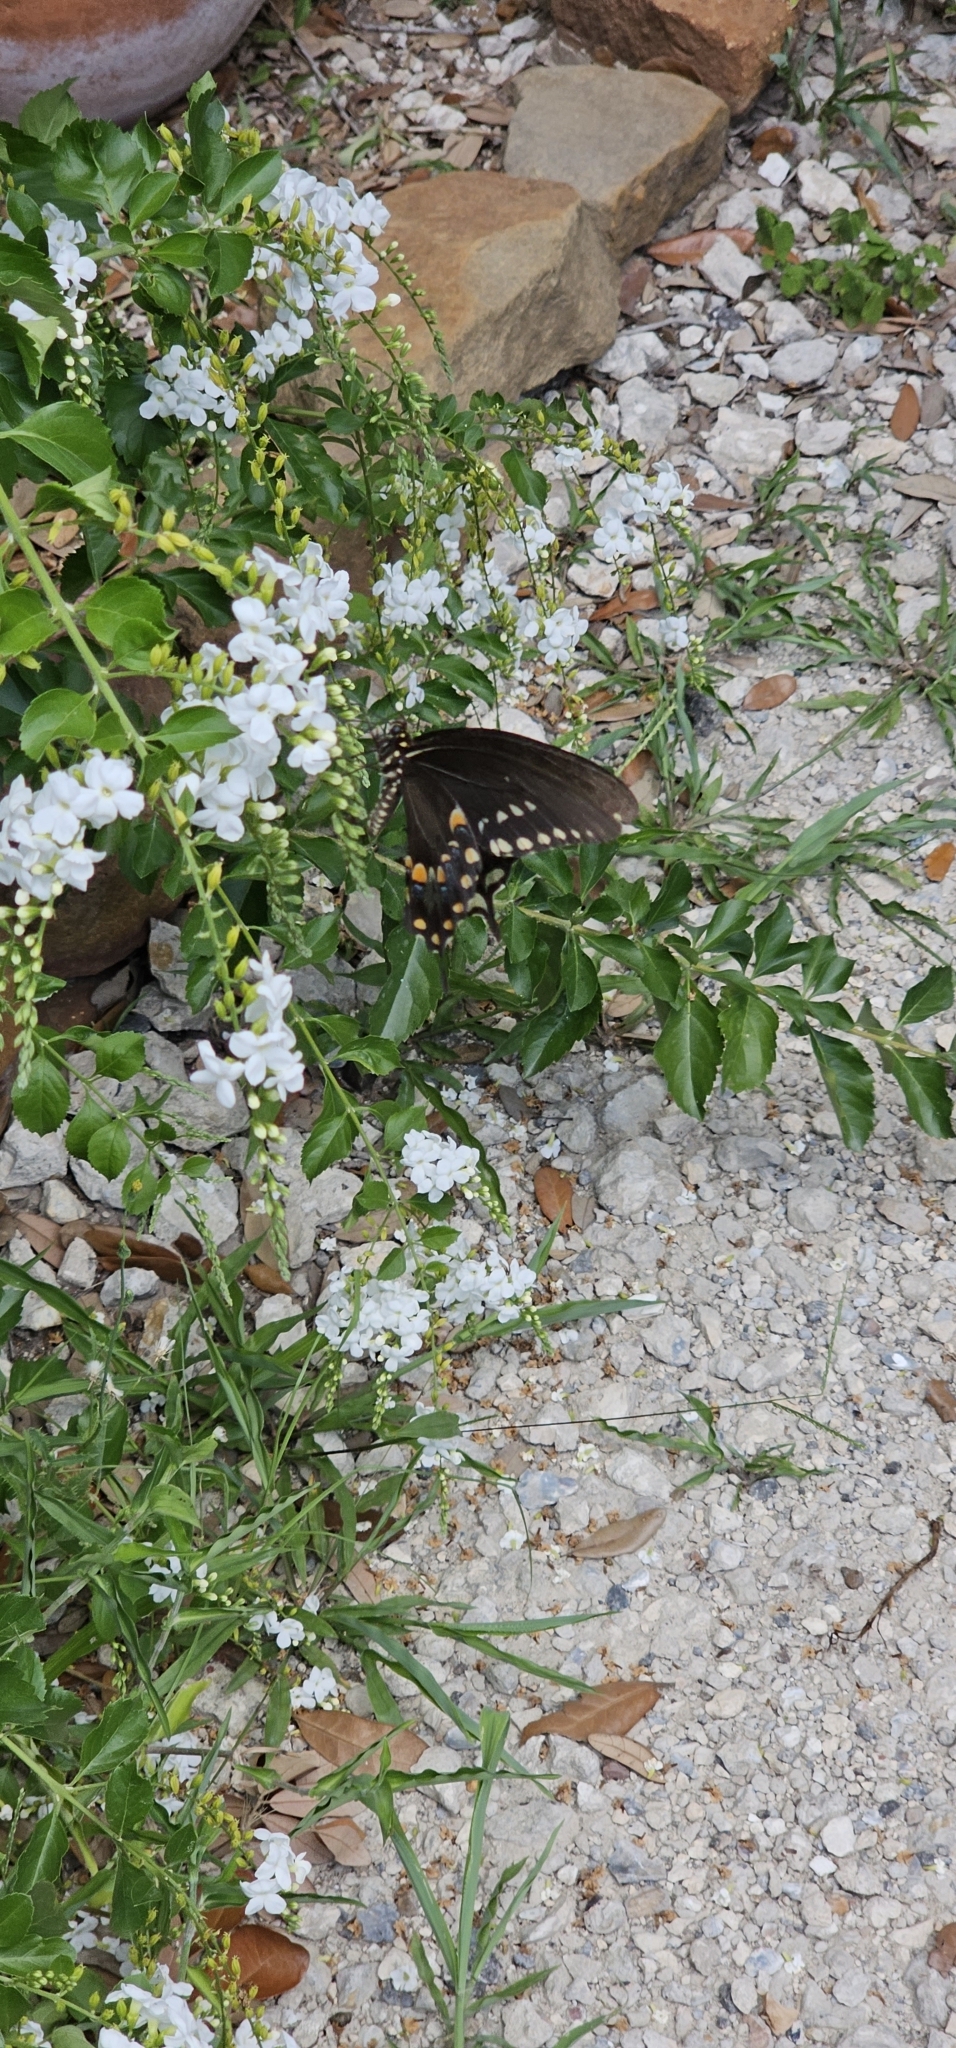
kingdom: Animalia
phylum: Arthropoda
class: Insecta
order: Lepidoptera
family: Papilionidae
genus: Papilio
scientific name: Papilio troilus
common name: Spicebush swallowtail
